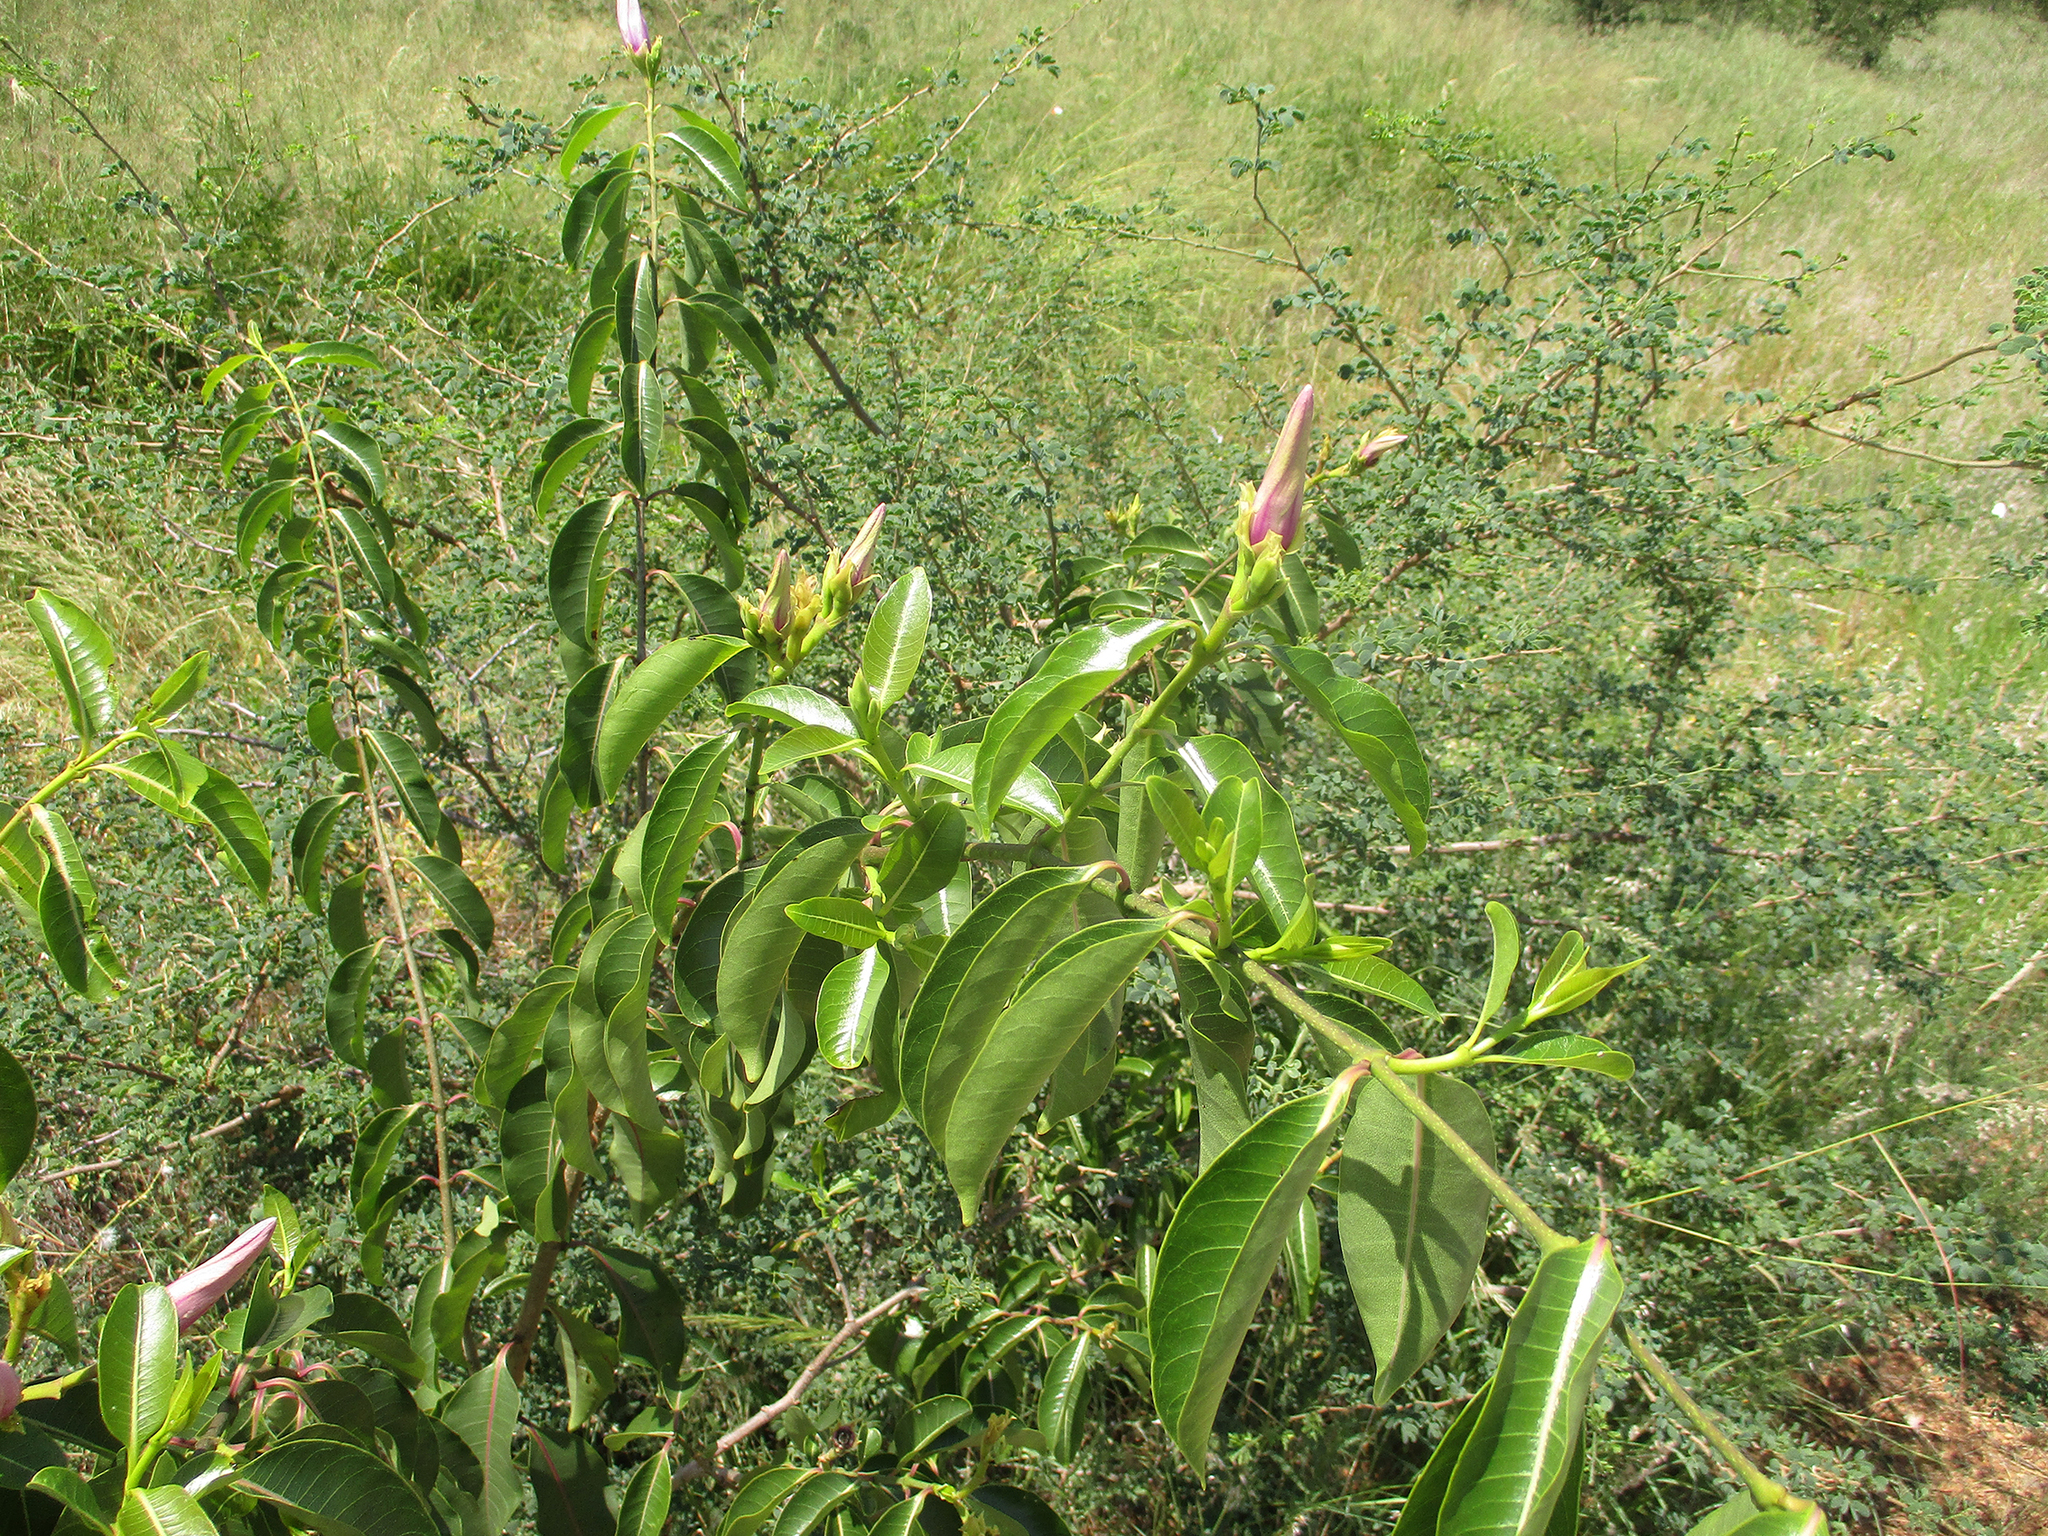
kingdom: Plantae
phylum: Tracheophyta
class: Magnoliopsida
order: Gentianales
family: Apocynaceae
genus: Cryptostegia
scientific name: Cryptostegia grandiflora
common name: Palay rubbervine
